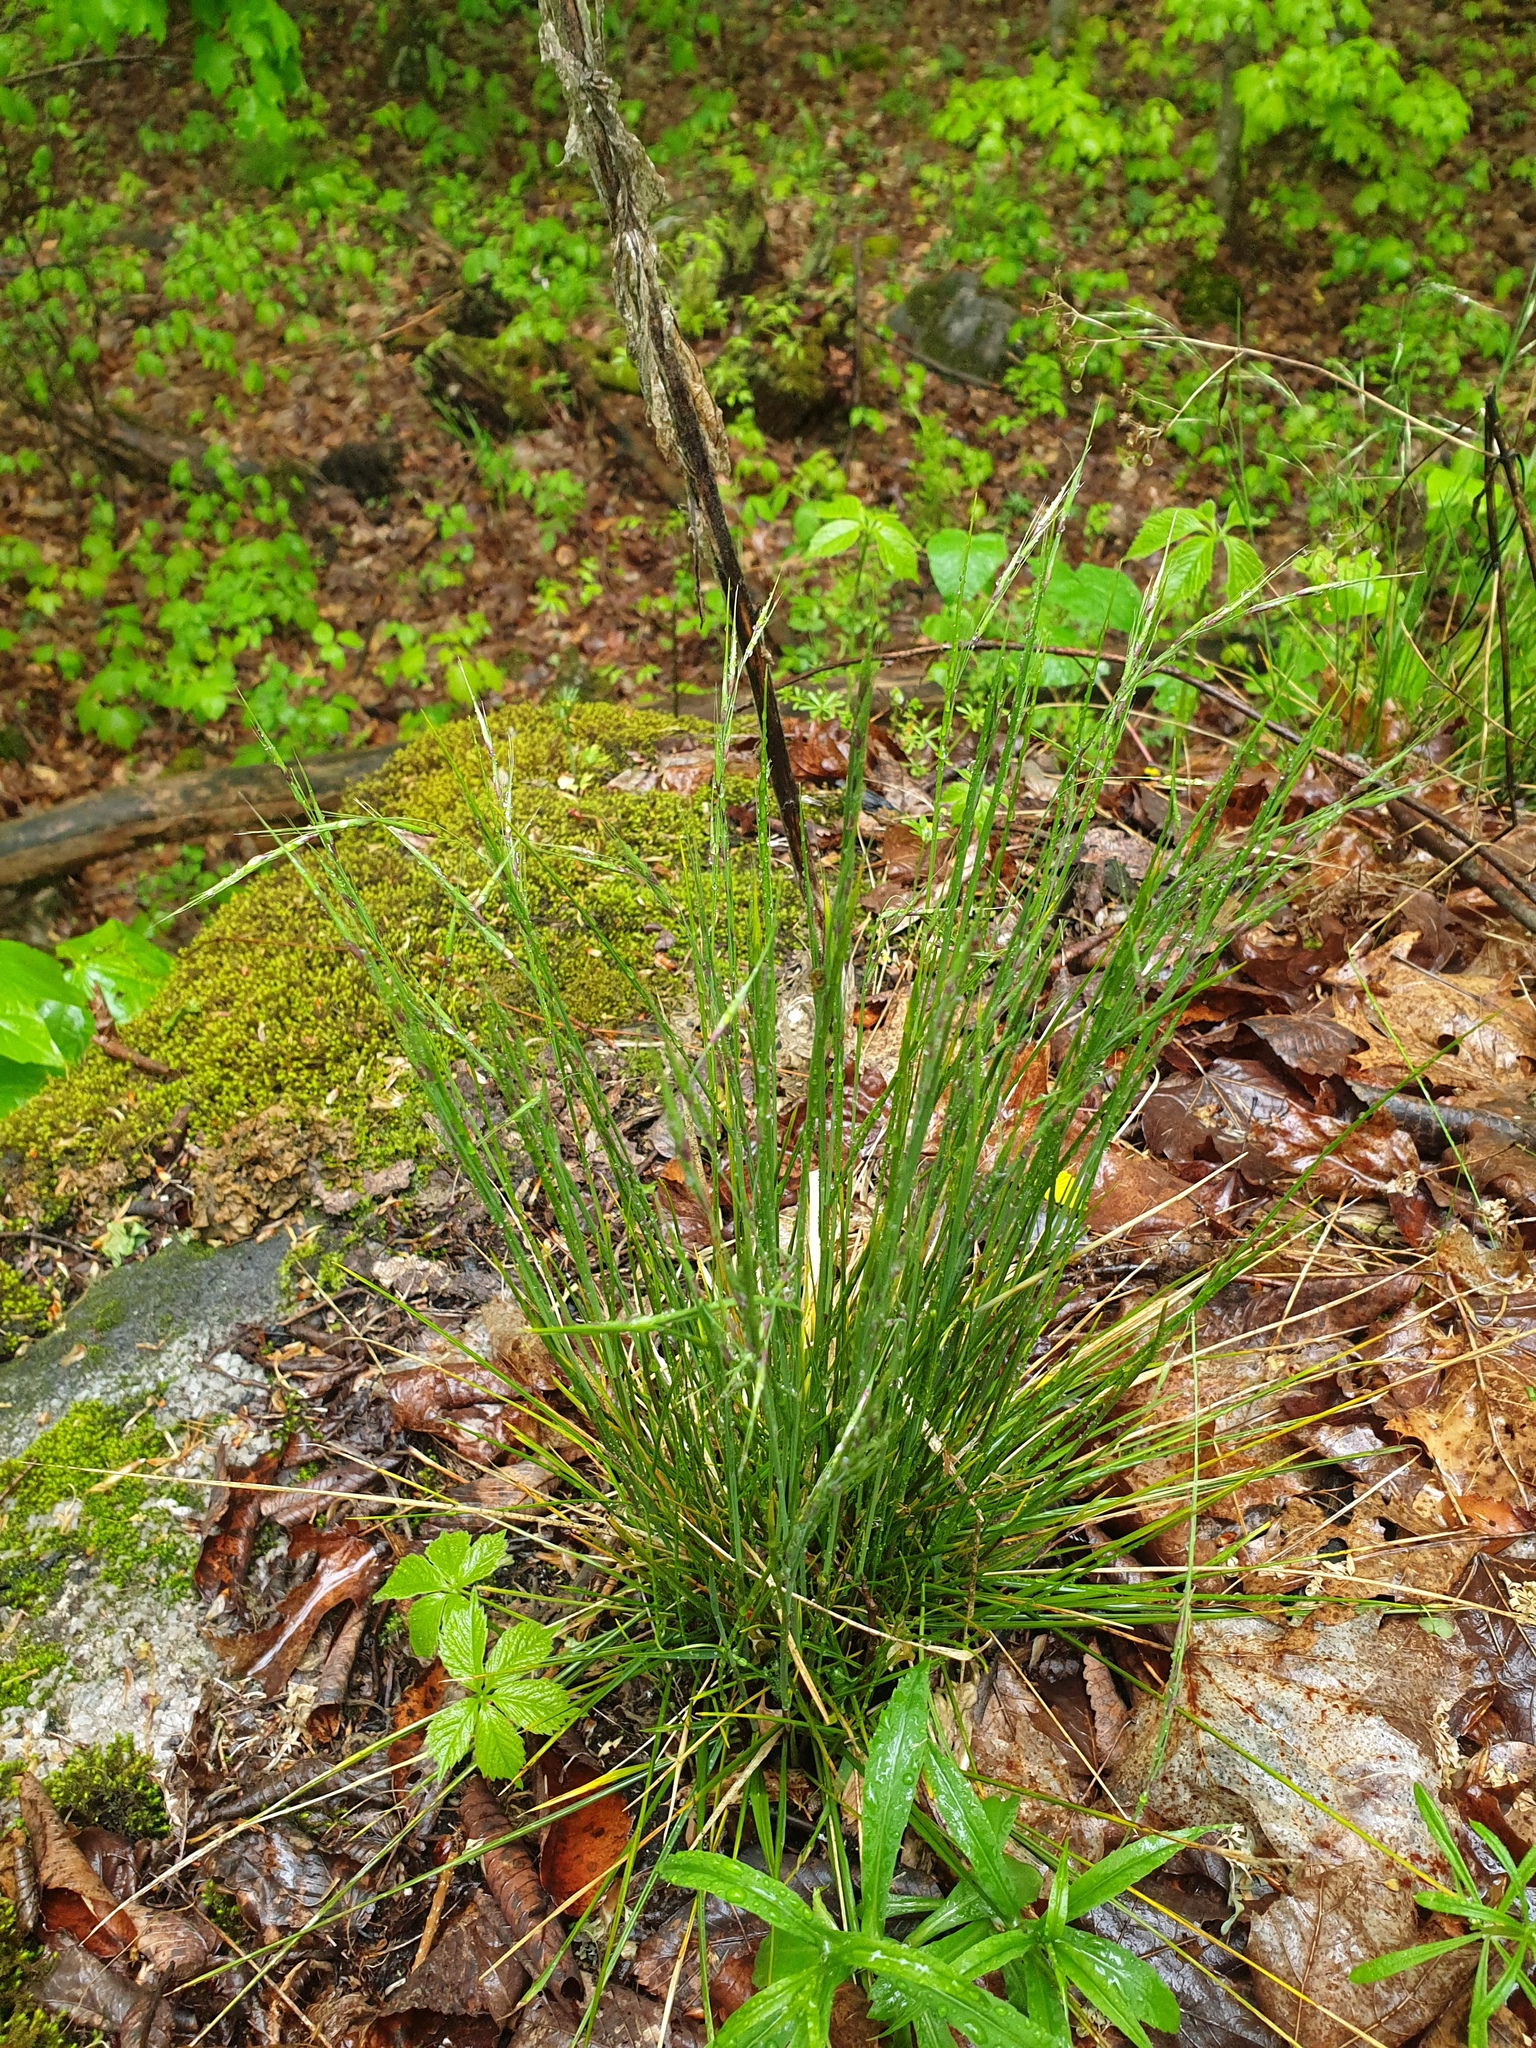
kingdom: Plantae
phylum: Tracheophyta
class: Liliopsida
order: Poales
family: Poaceae
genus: Schizachne
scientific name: Schizachne purpurascens
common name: False melic
